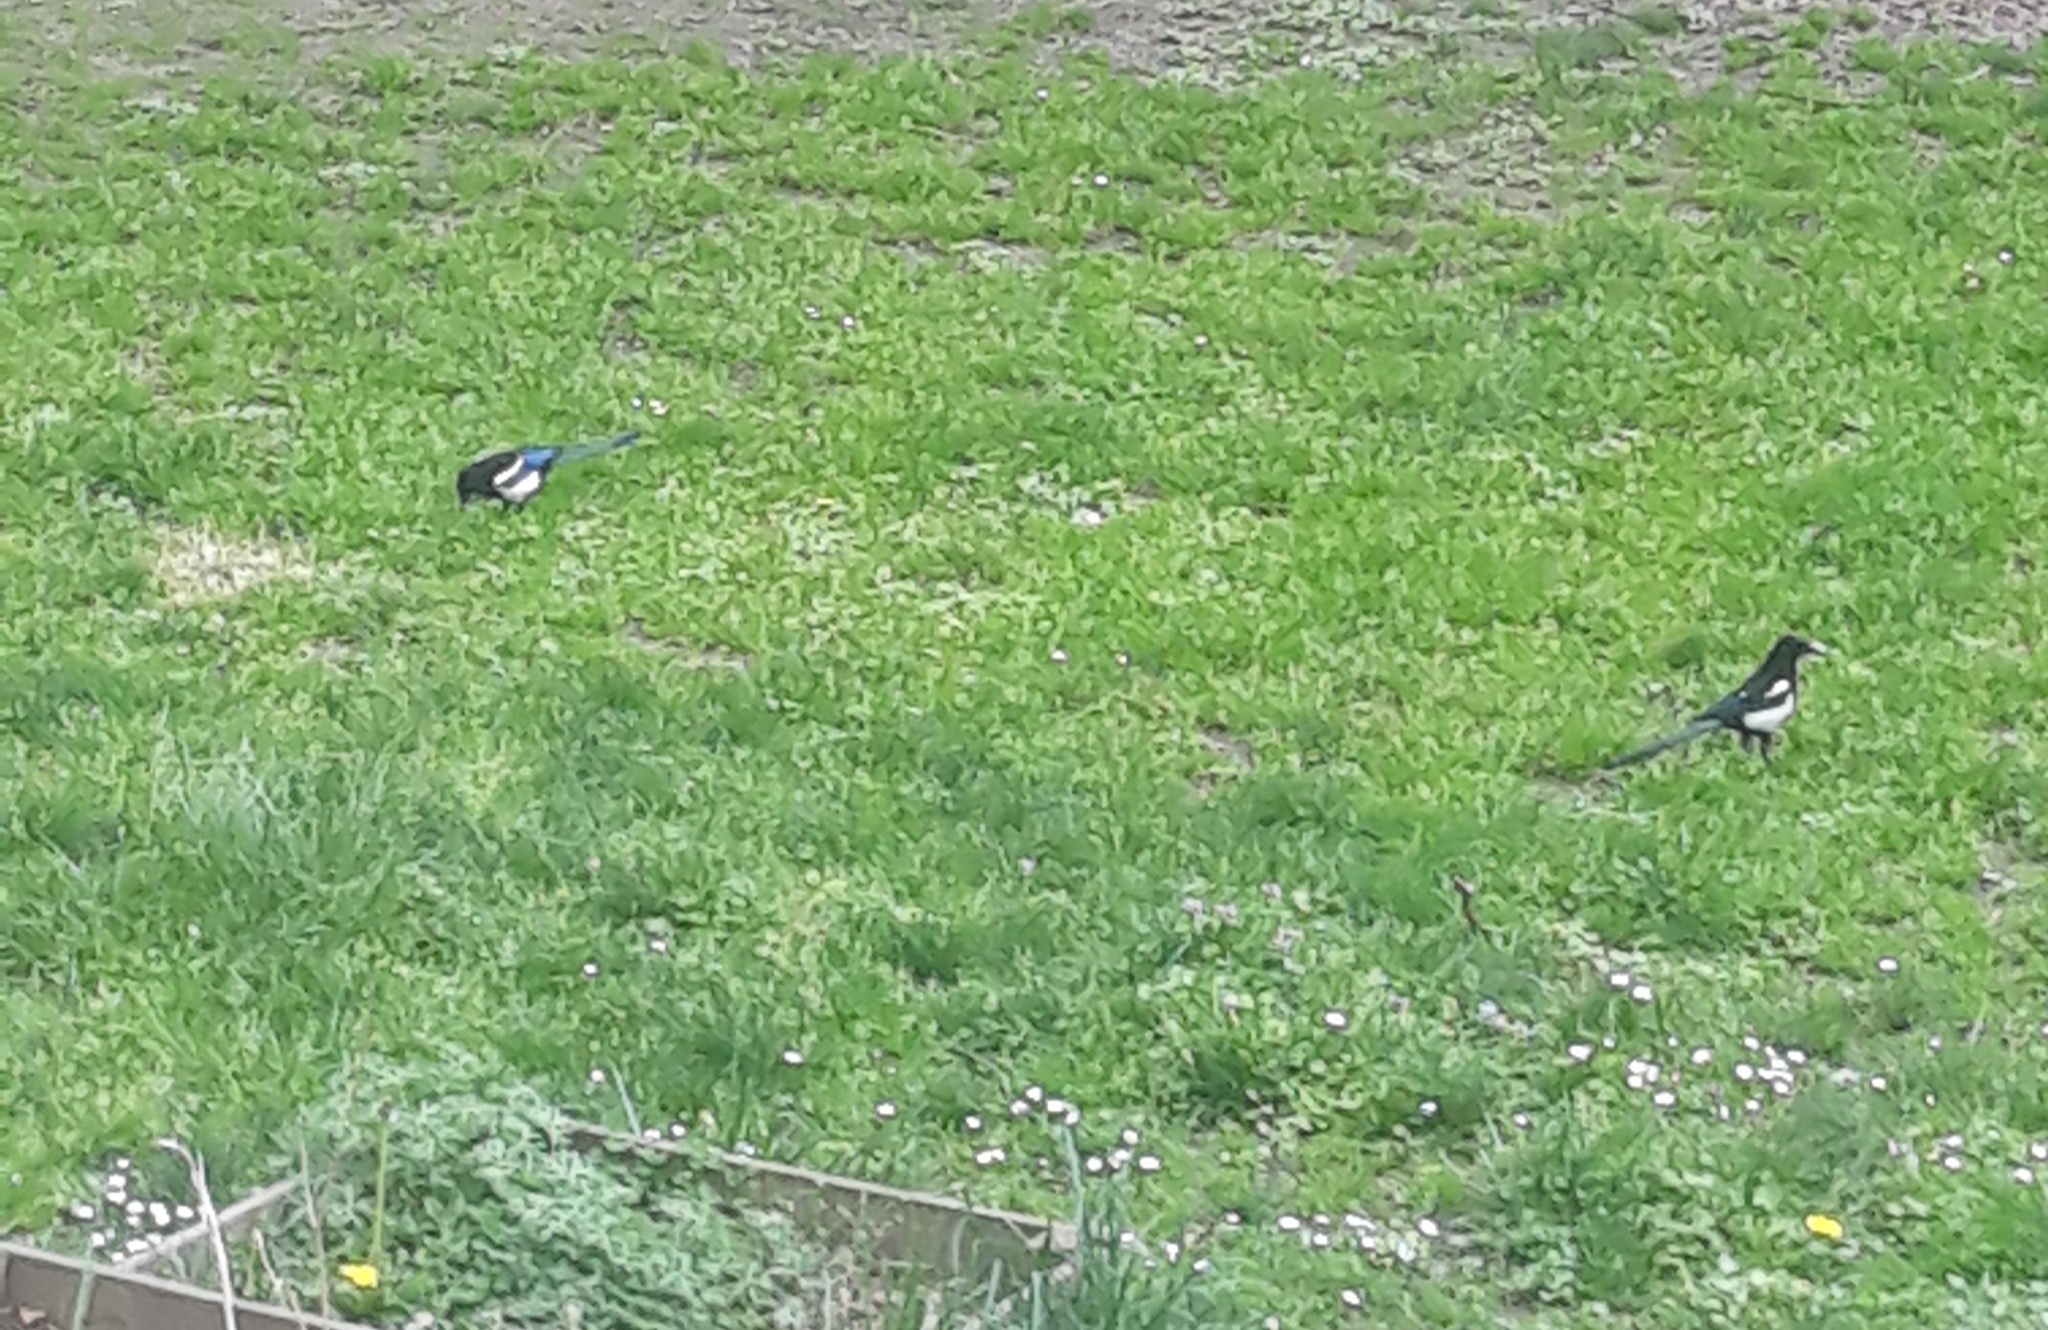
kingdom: Animalia
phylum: Chordata
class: Aves
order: Passeriformes
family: Corvidae
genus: Pica
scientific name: Pica pica
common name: Eurasian magpie
